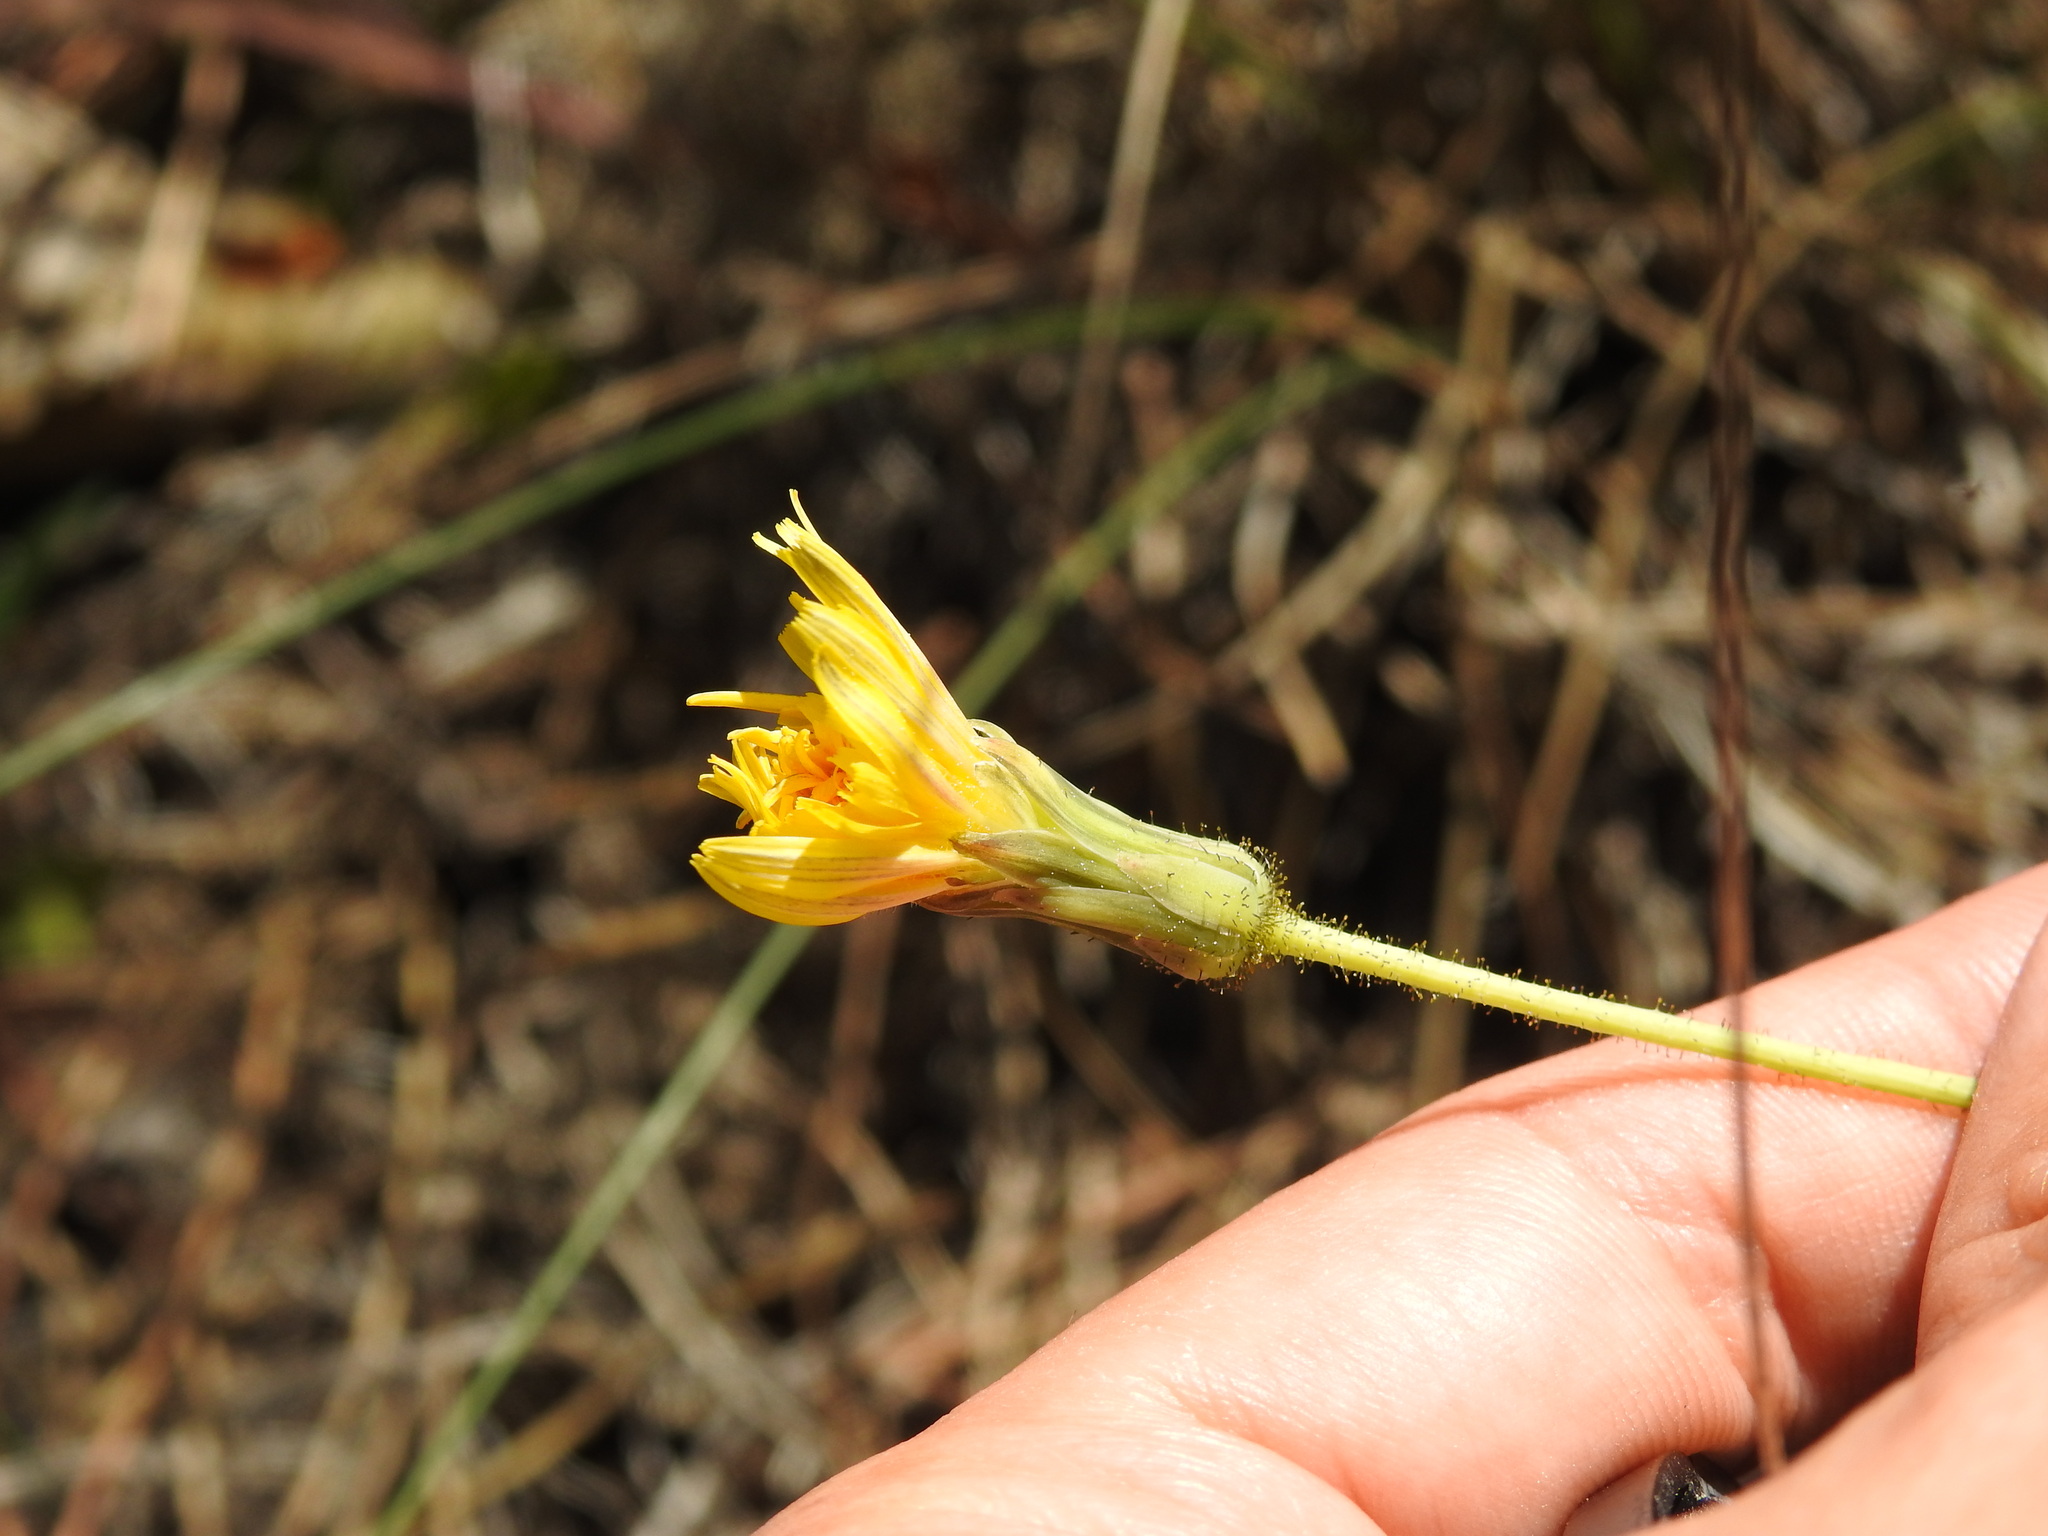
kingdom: Plantae
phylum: Tracheophyta
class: Magnoliopsida
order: Asterales
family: Asteraceae
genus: Aetheorhiza
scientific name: Aetheorhiza bulbosa
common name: Tuberous hawk's-beard
